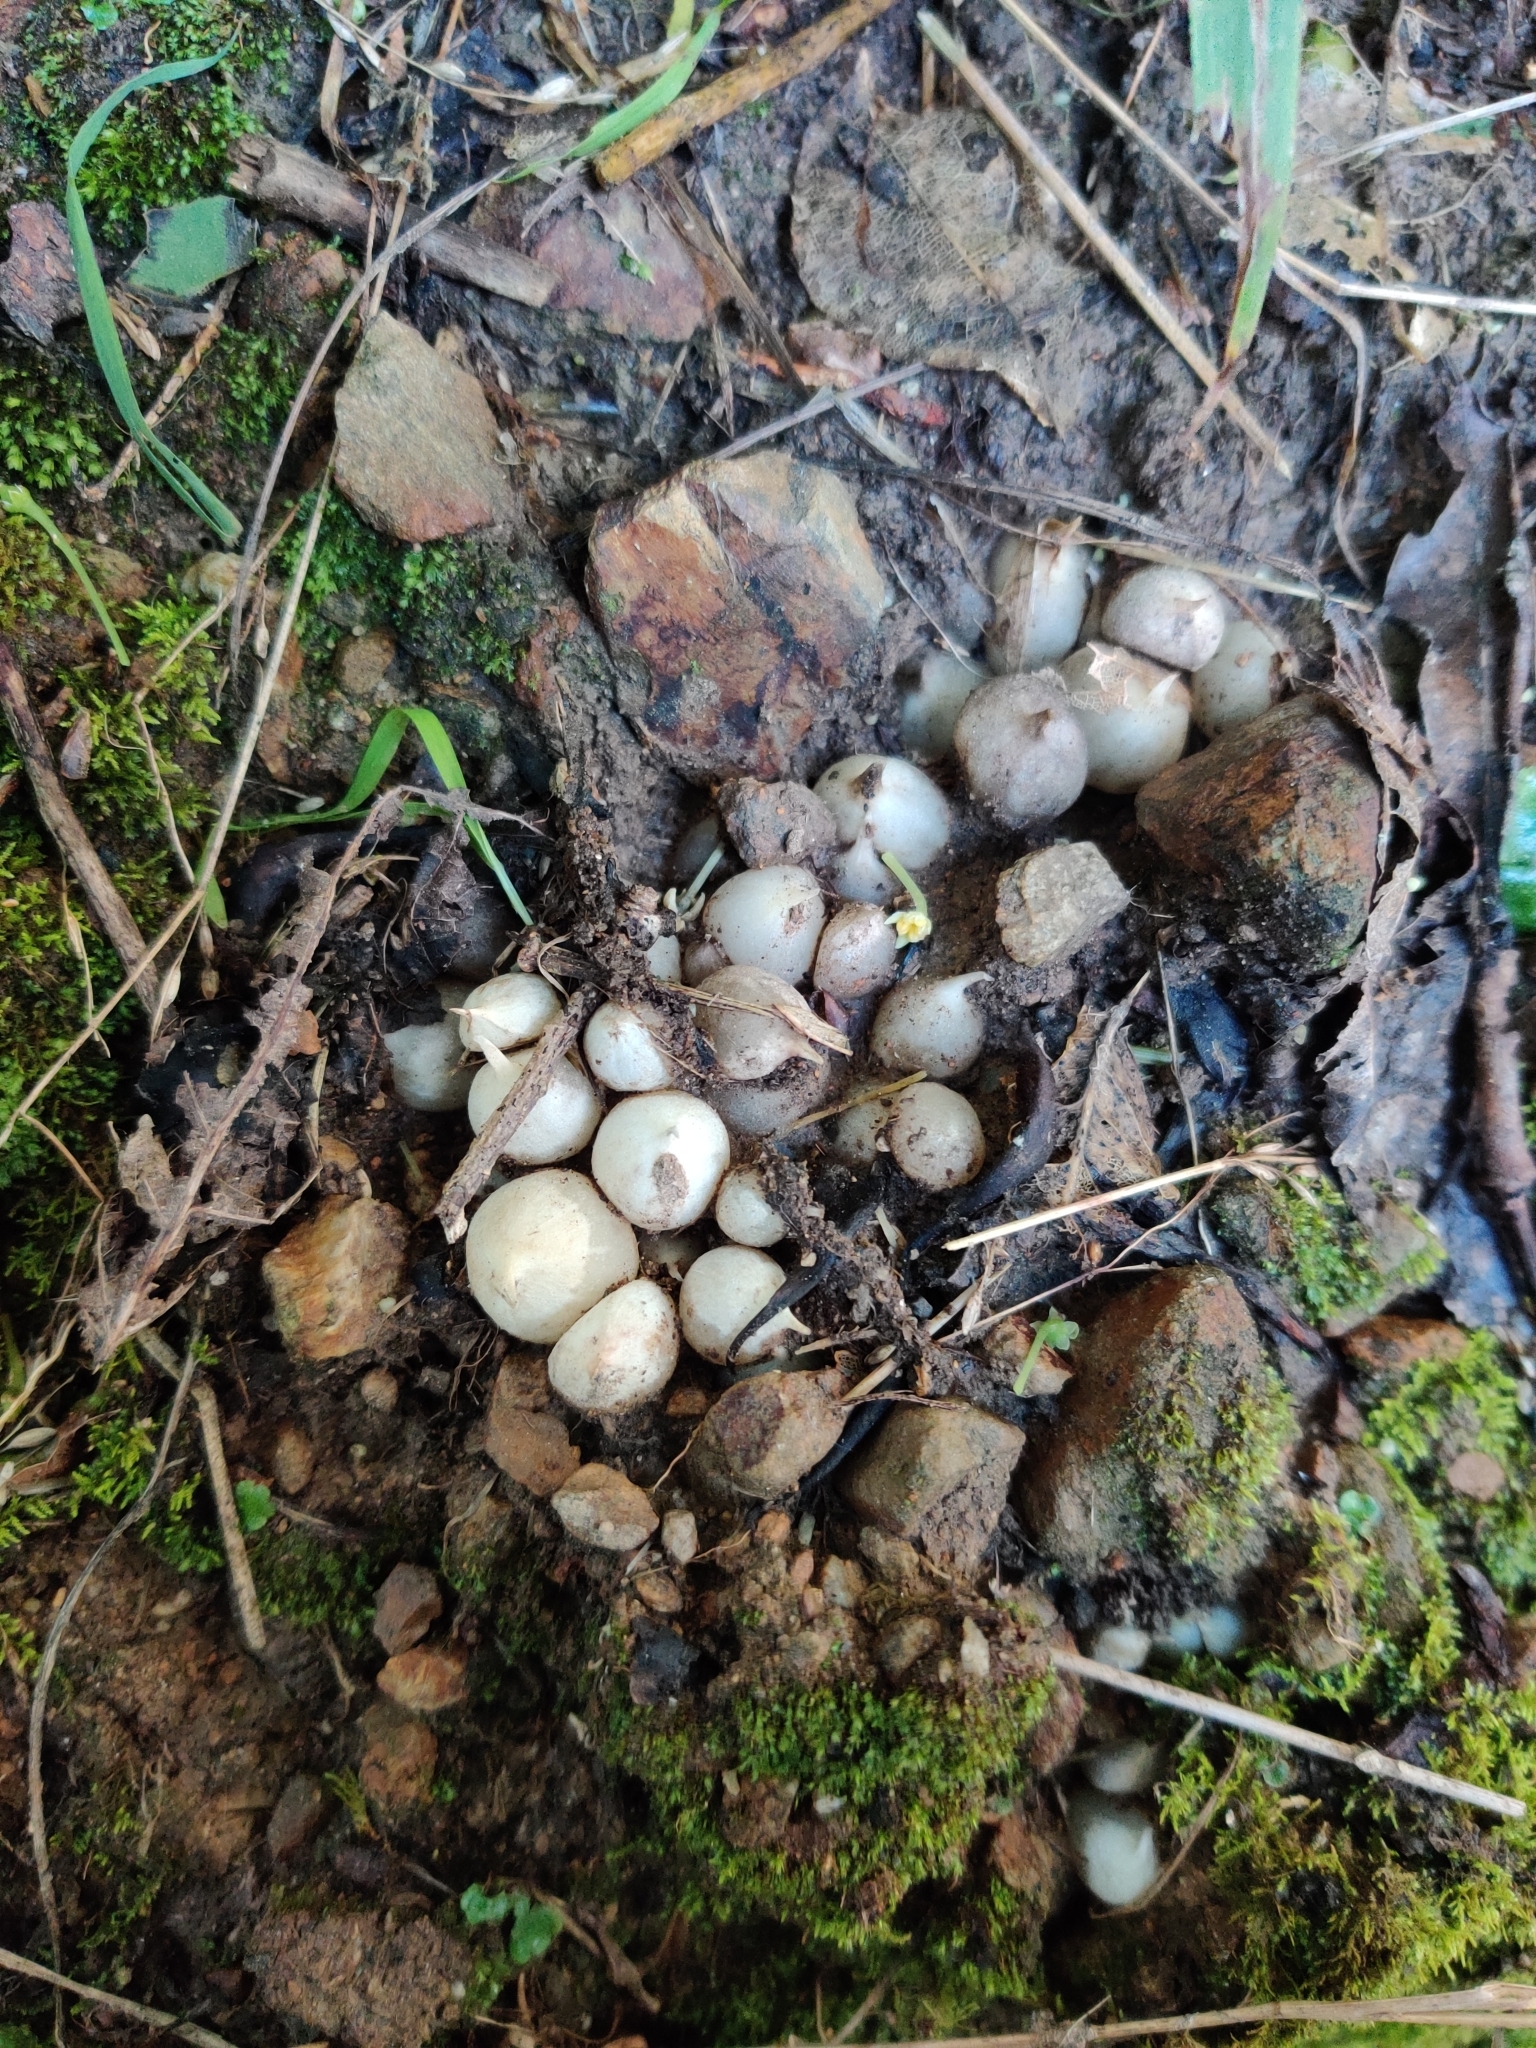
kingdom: Plantae
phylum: Tracheophyta
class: Liliopsida
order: Asparagales
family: Amaryllidaceae
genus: Allium
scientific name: Allium triquetrum
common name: Three-cornered garlic
